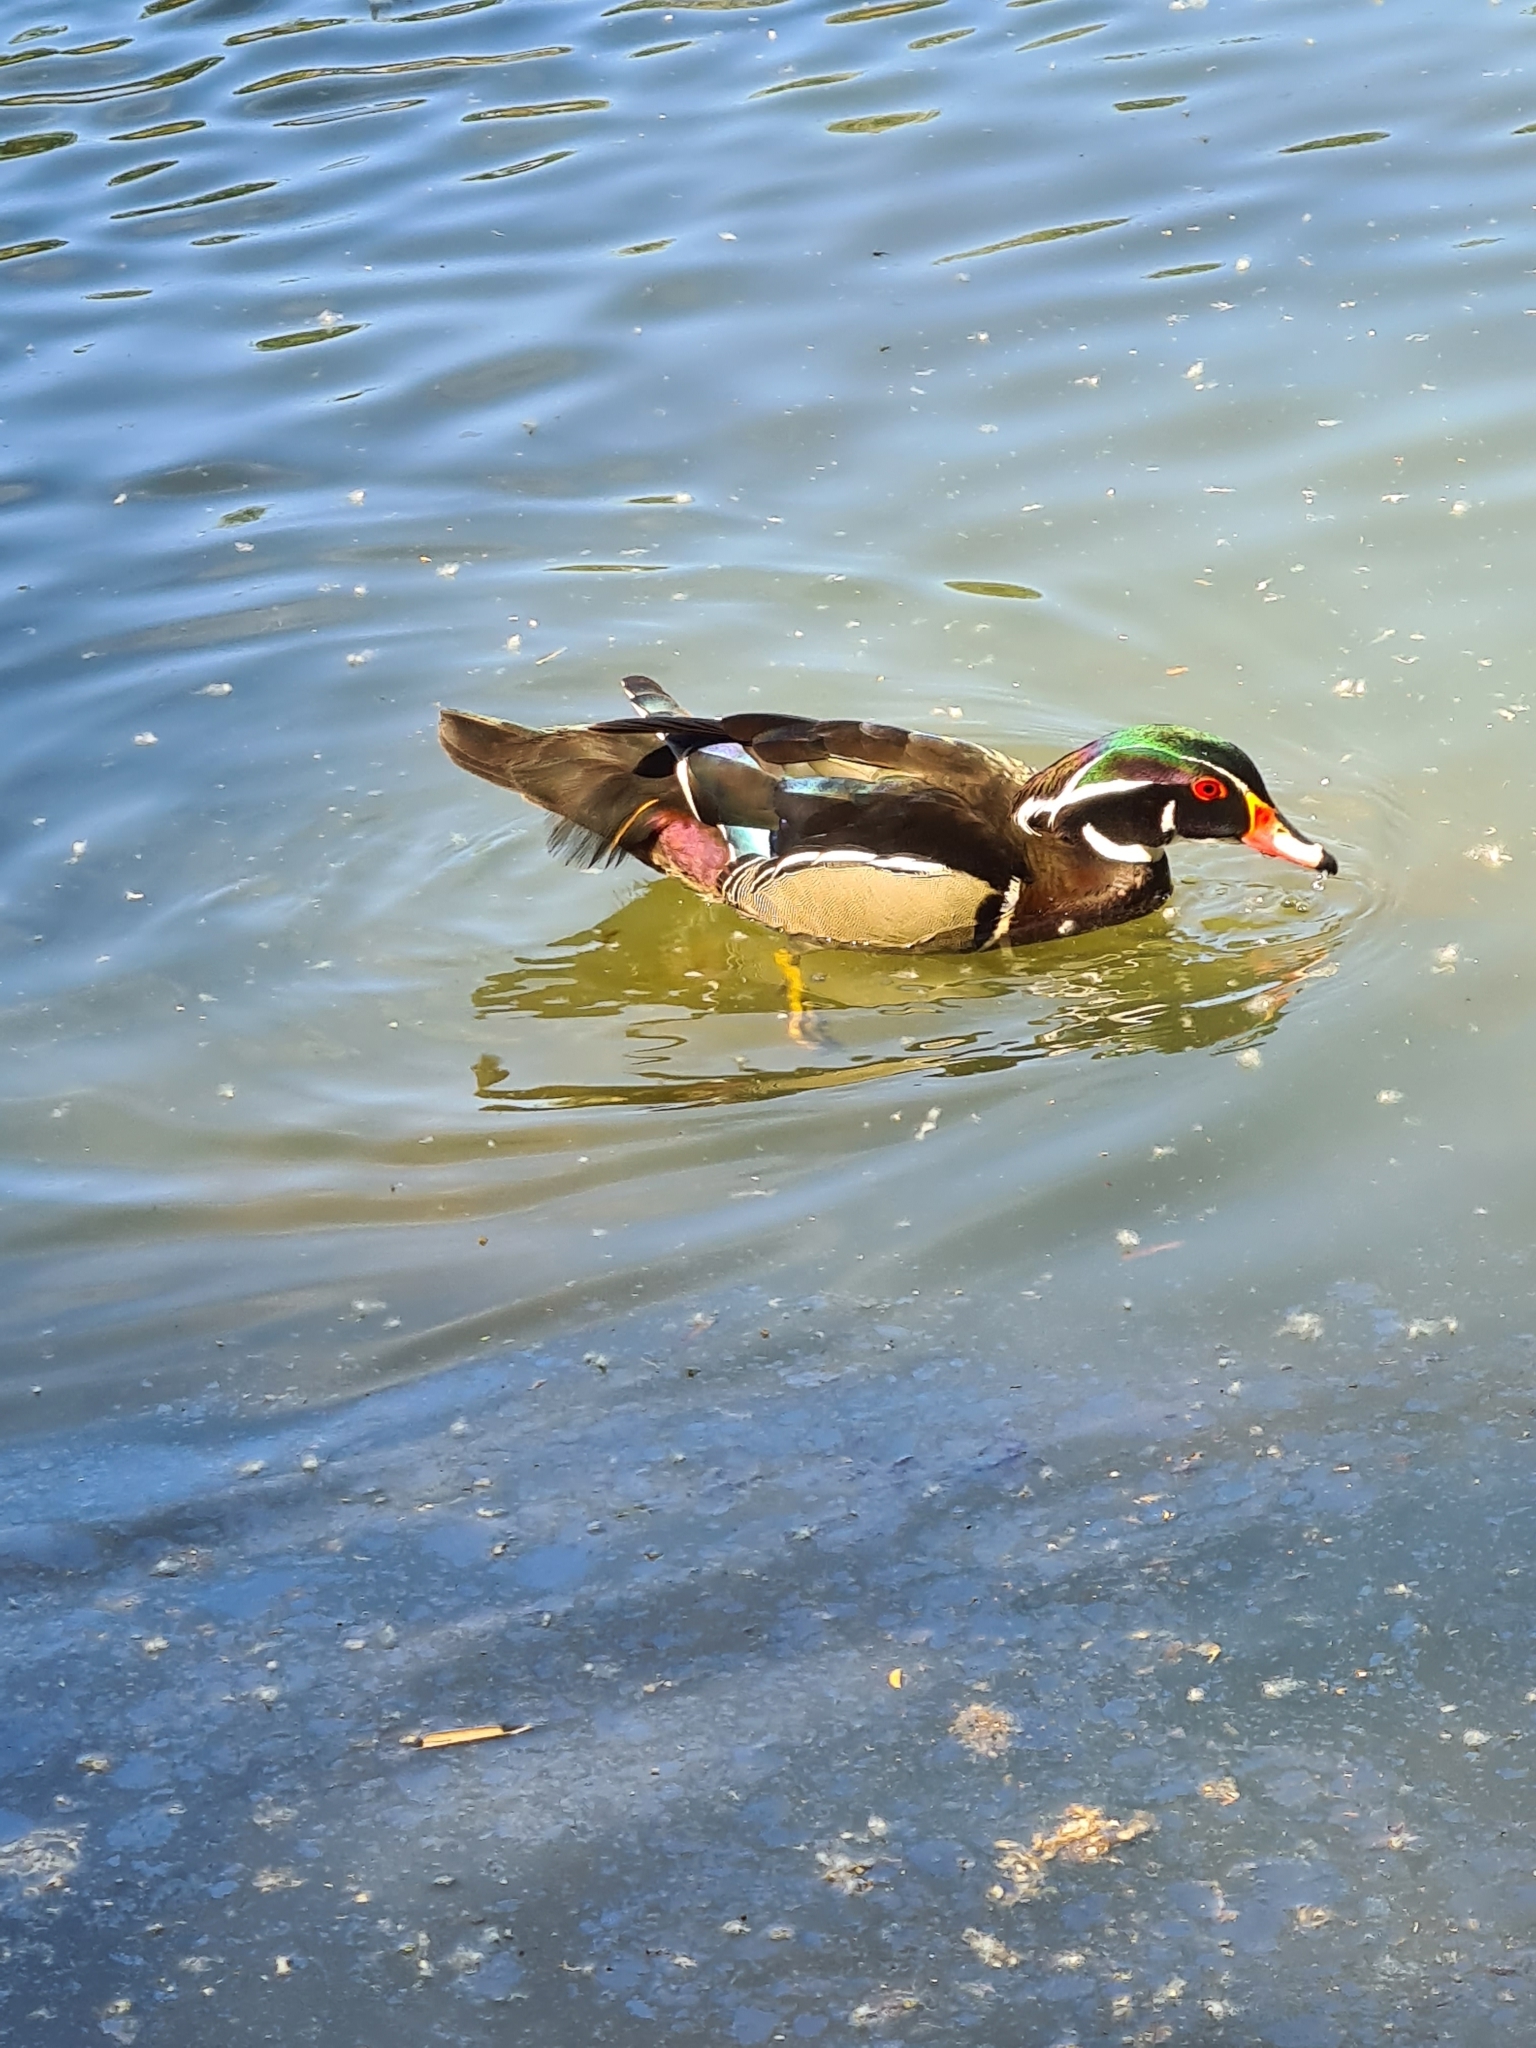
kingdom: Animalia
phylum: Chordata
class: Aves
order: Anseriformes
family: Anatidae
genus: Aix
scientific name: Aix sponsa
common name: Wood duck
